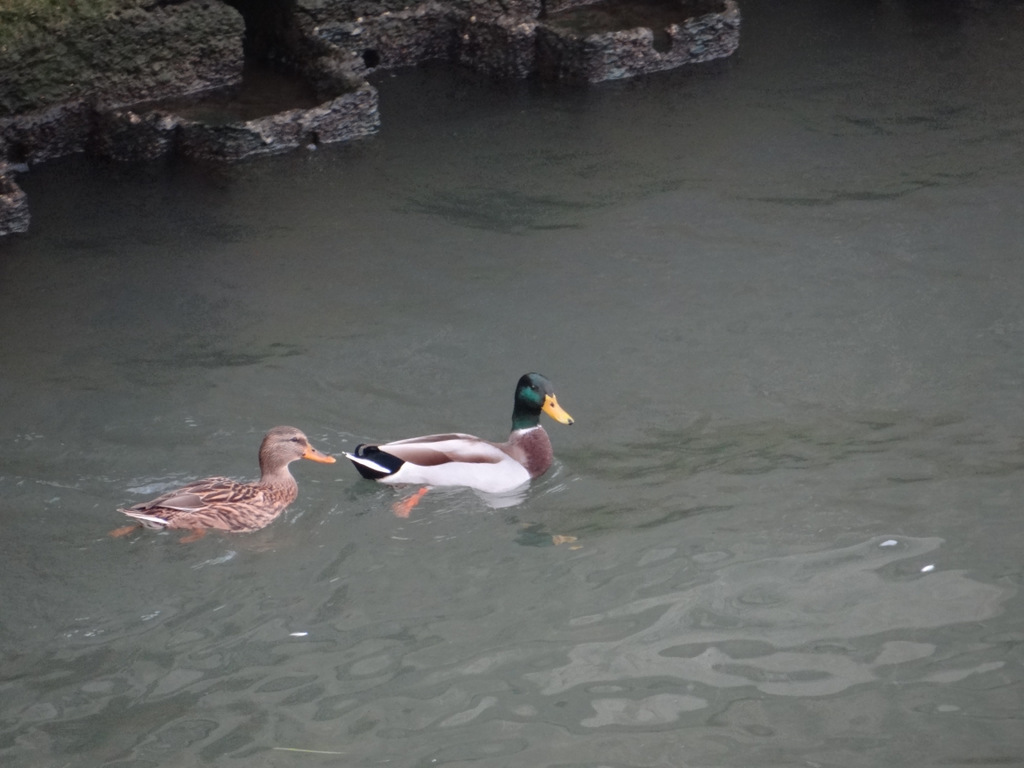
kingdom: Animalia
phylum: Chordata
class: Aves
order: Anseriformes
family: Anatidae
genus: Anas
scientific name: Anas platyrhynchos
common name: Mallard
